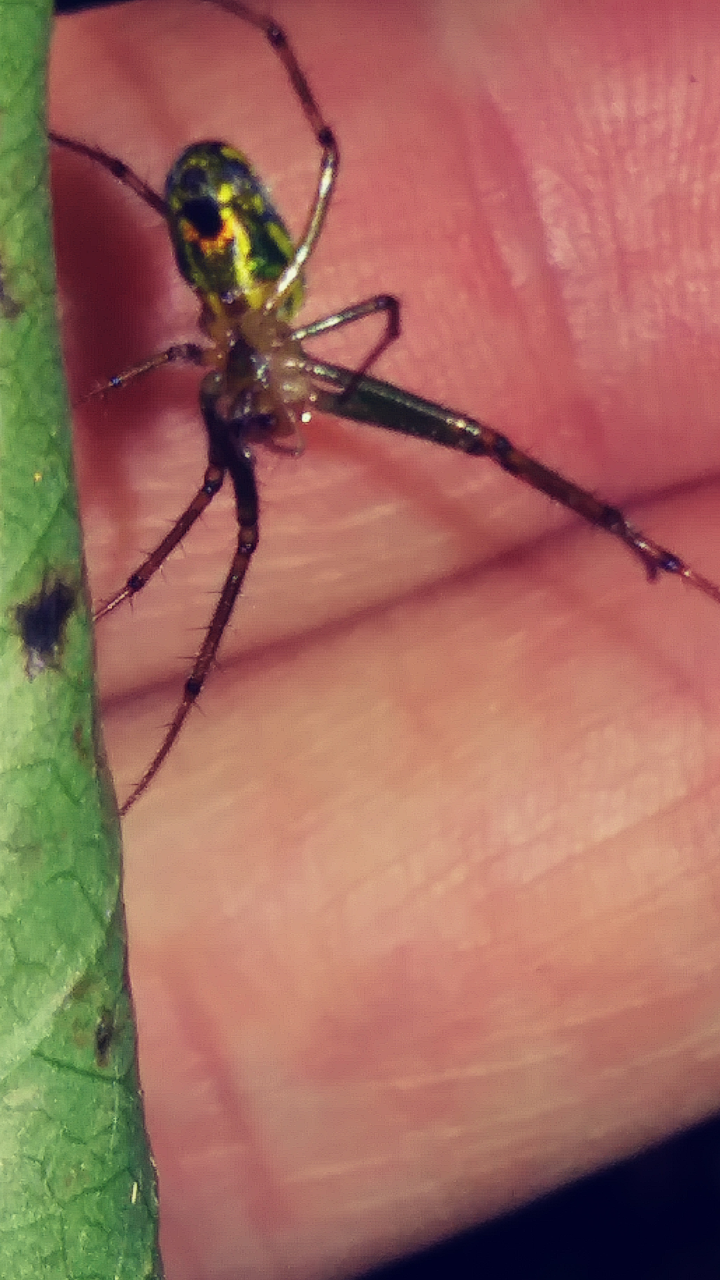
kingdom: Animalia
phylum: Arthropoda
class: Arachnida
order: Araneae
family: Tetragnathidae
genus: Leucauge
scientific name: Leucauge venusta
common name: Longjawed orb weavers
